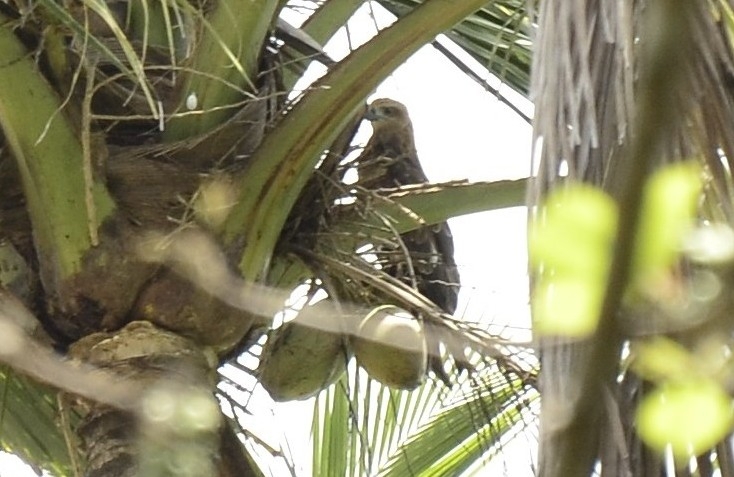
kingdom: Animalia
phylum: Chordata
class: Aves
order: Accipitriformes
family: Accipitridae
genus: Milvus
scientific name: Milvus migrans
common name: Black kite
